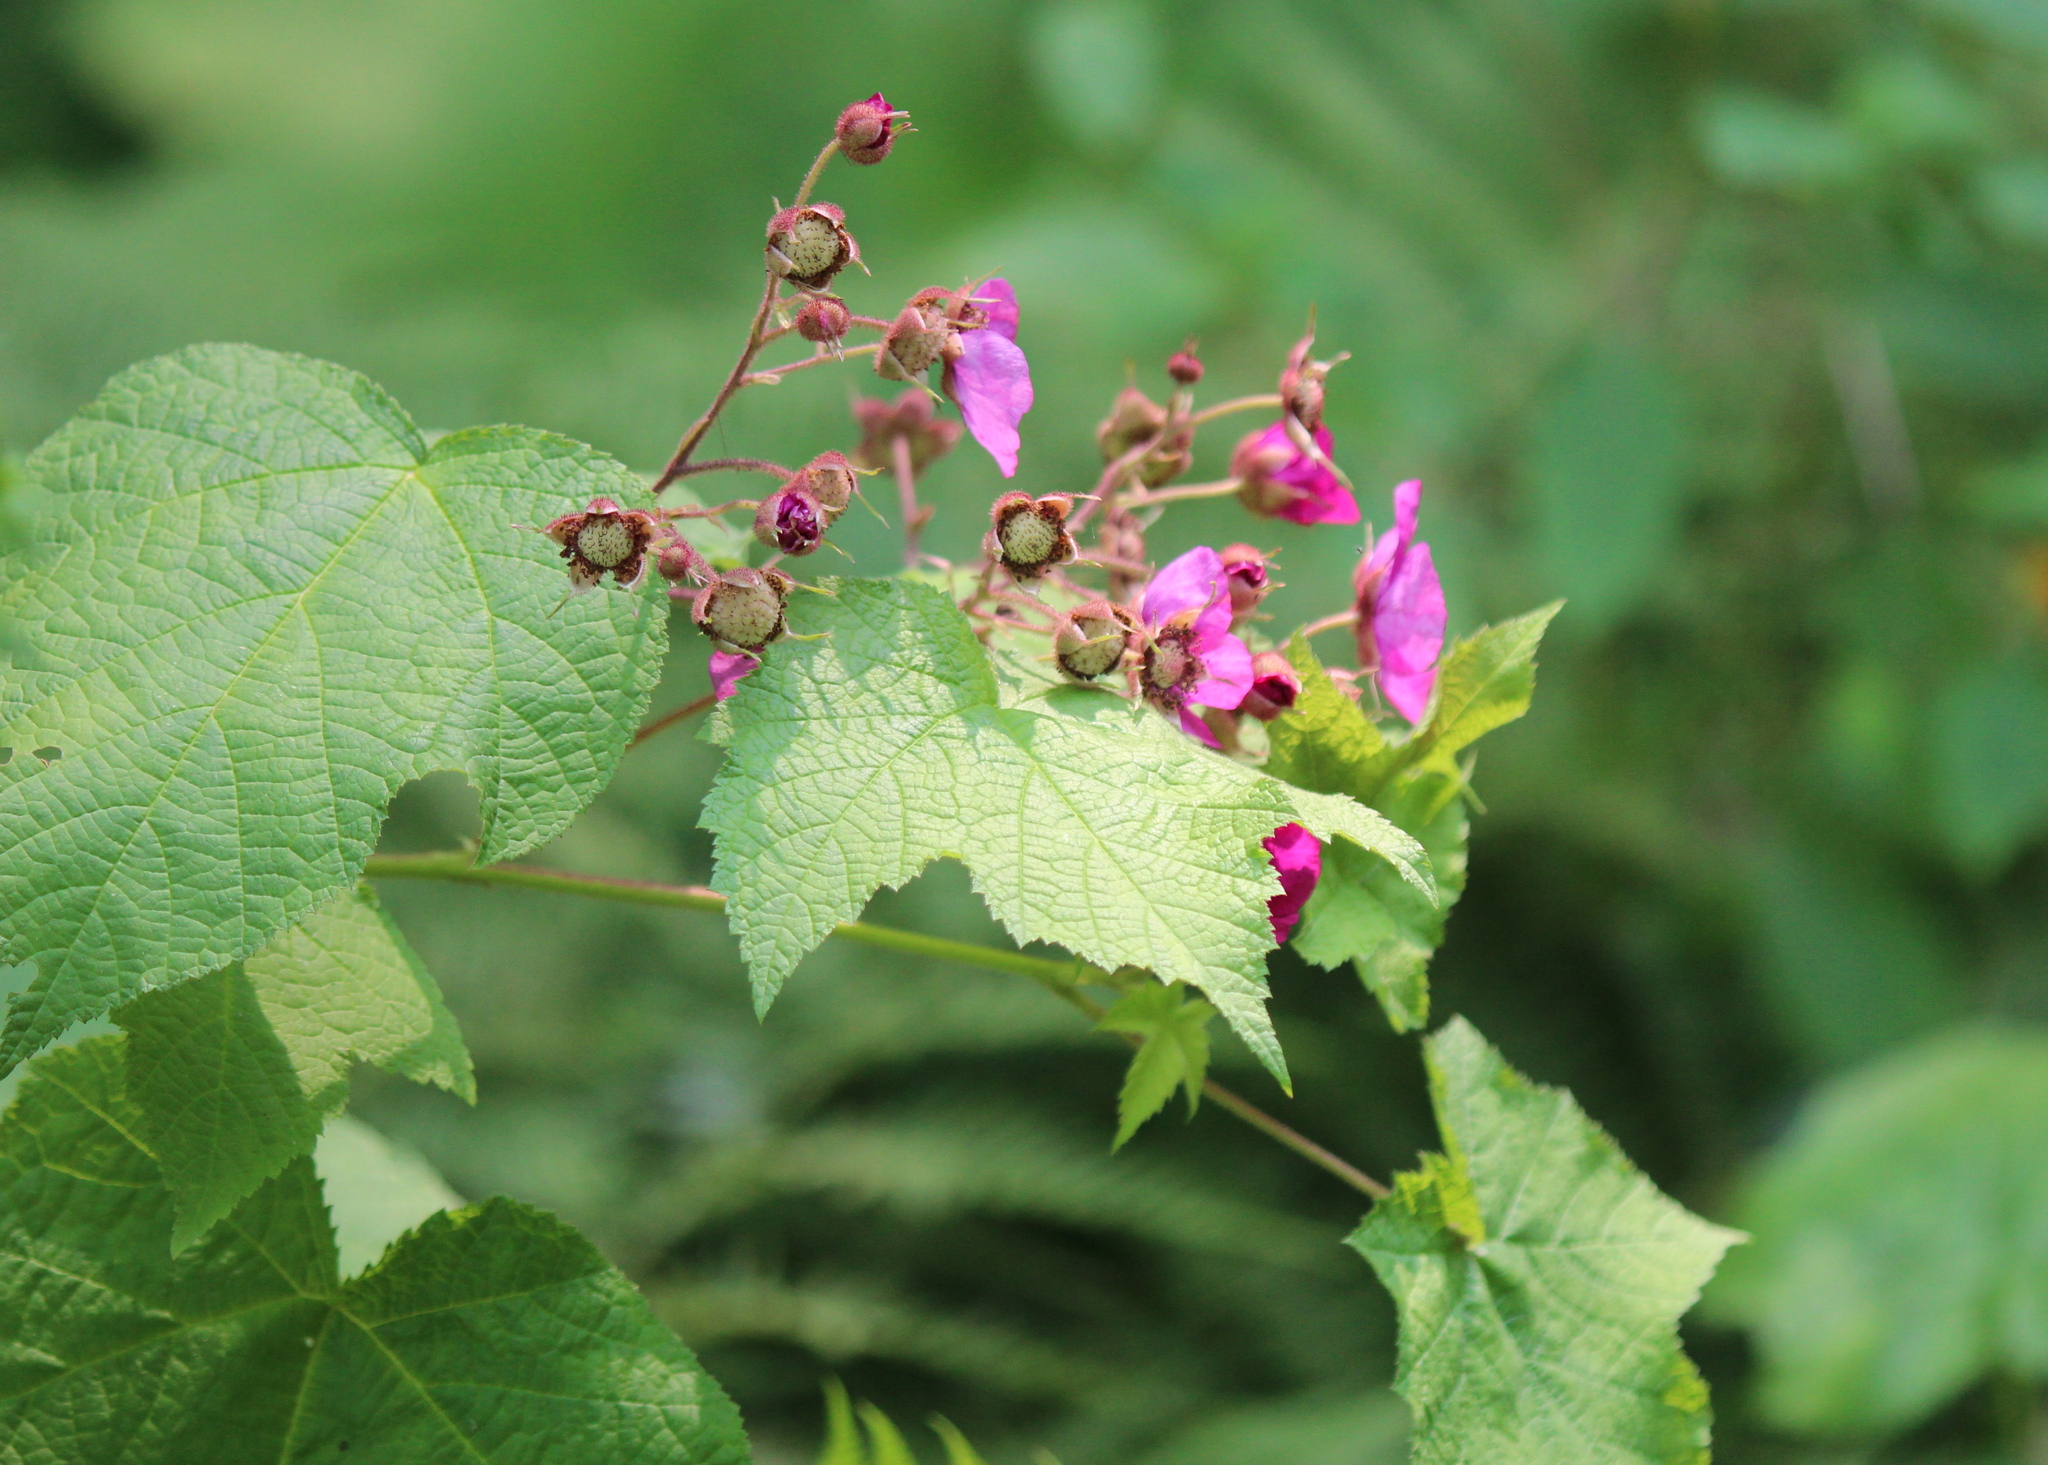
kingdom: Plantae
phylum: Tracheophyta
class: Magnoliopsida
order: Rosales
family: Rosaceae
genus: Rubus
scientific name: Rubus odoratus
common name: Purple-flowered raspberry
